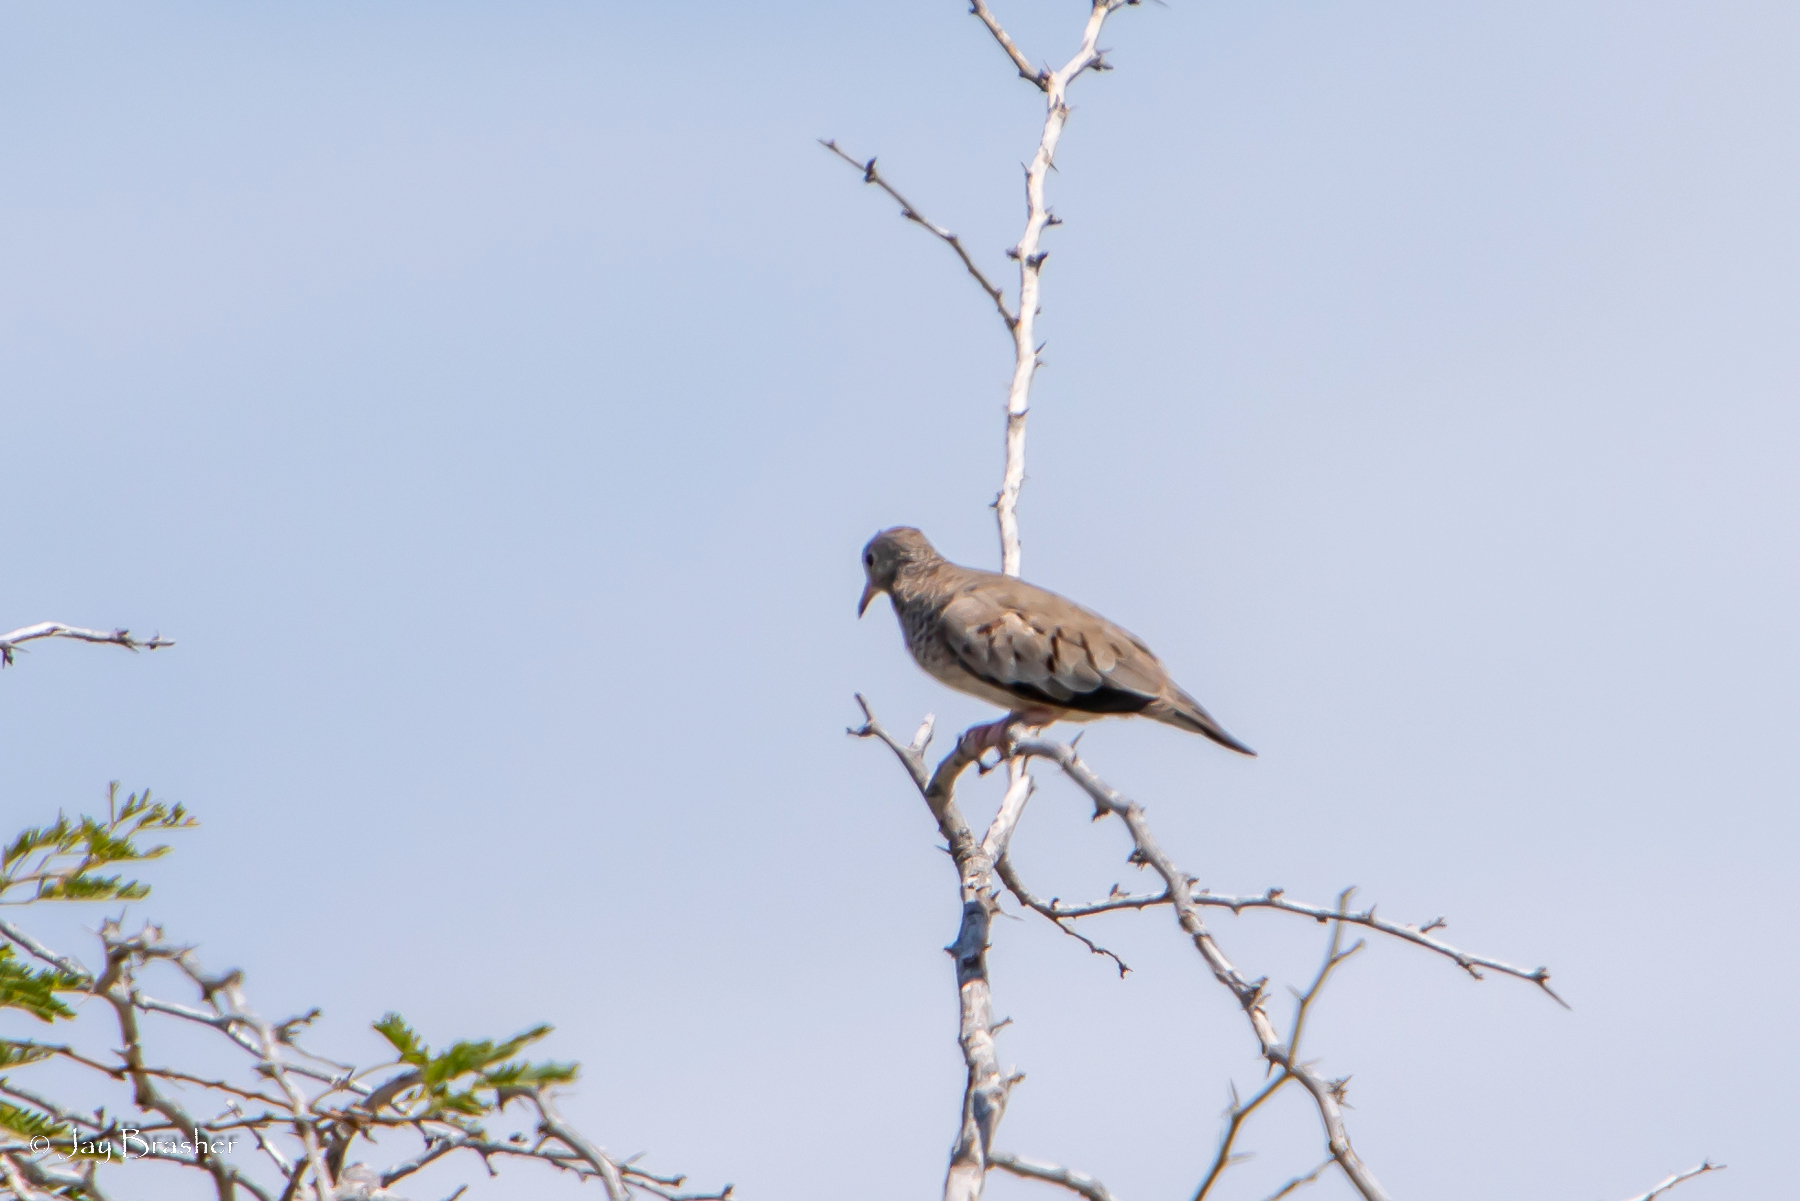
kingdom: Animalia
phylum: Chordata
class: Aves
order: Columbiformes
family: Columbidae
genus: Columbina
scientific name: Columbina passerina
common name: Common ground-dove
